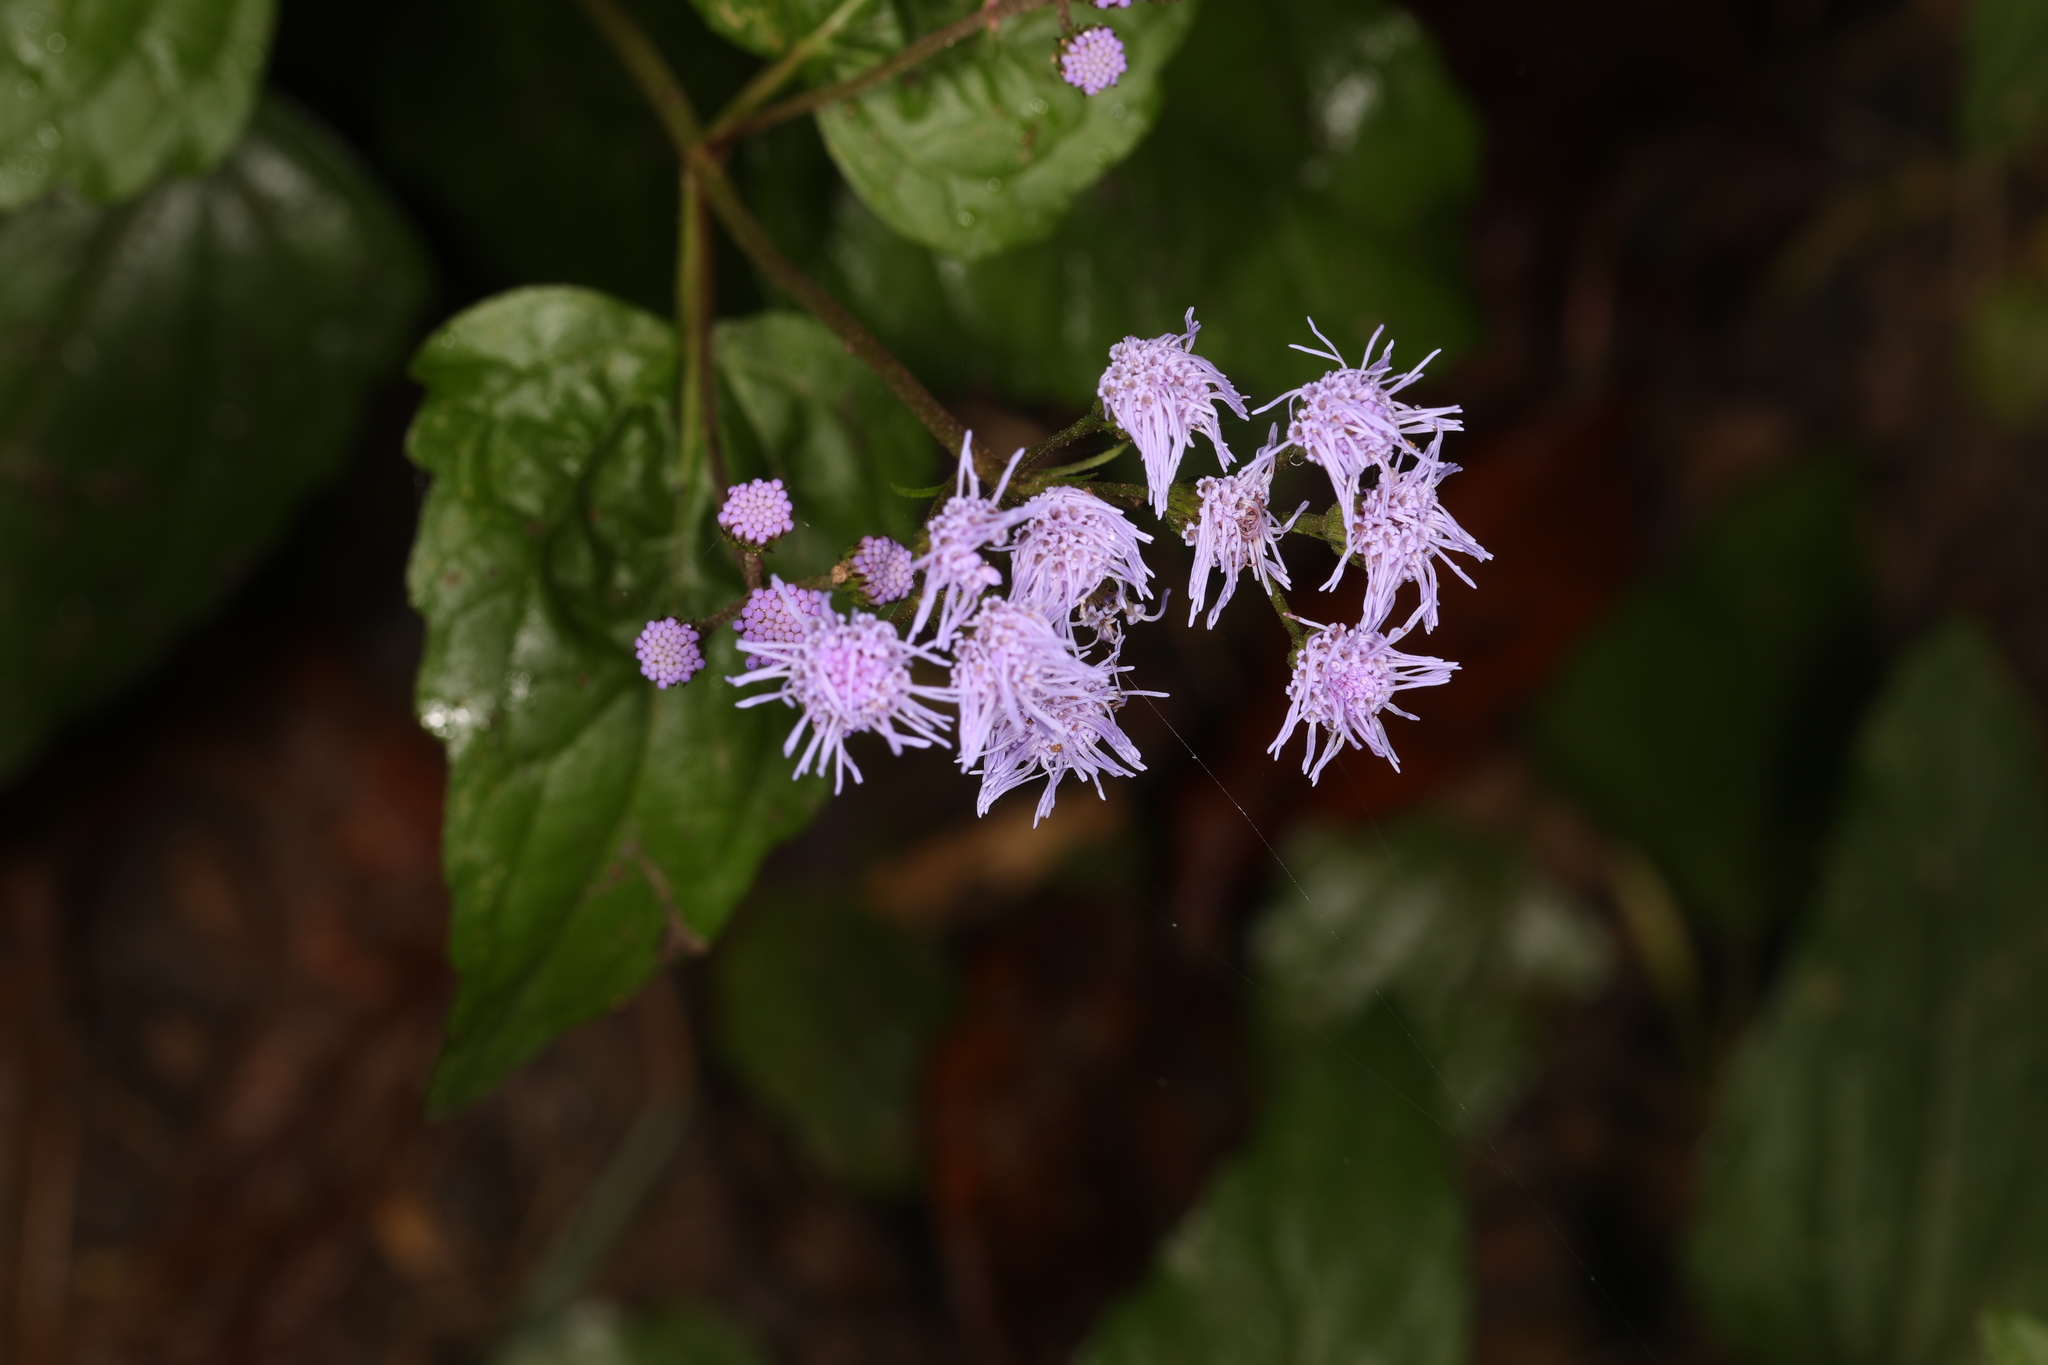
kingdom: Plantae
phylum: Tracheophyta
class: Magnoliopsida
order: Asterales
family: Asteraceae
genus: Conoclinium
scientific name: Conoclinium coelestinum
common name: Blue mistflower
